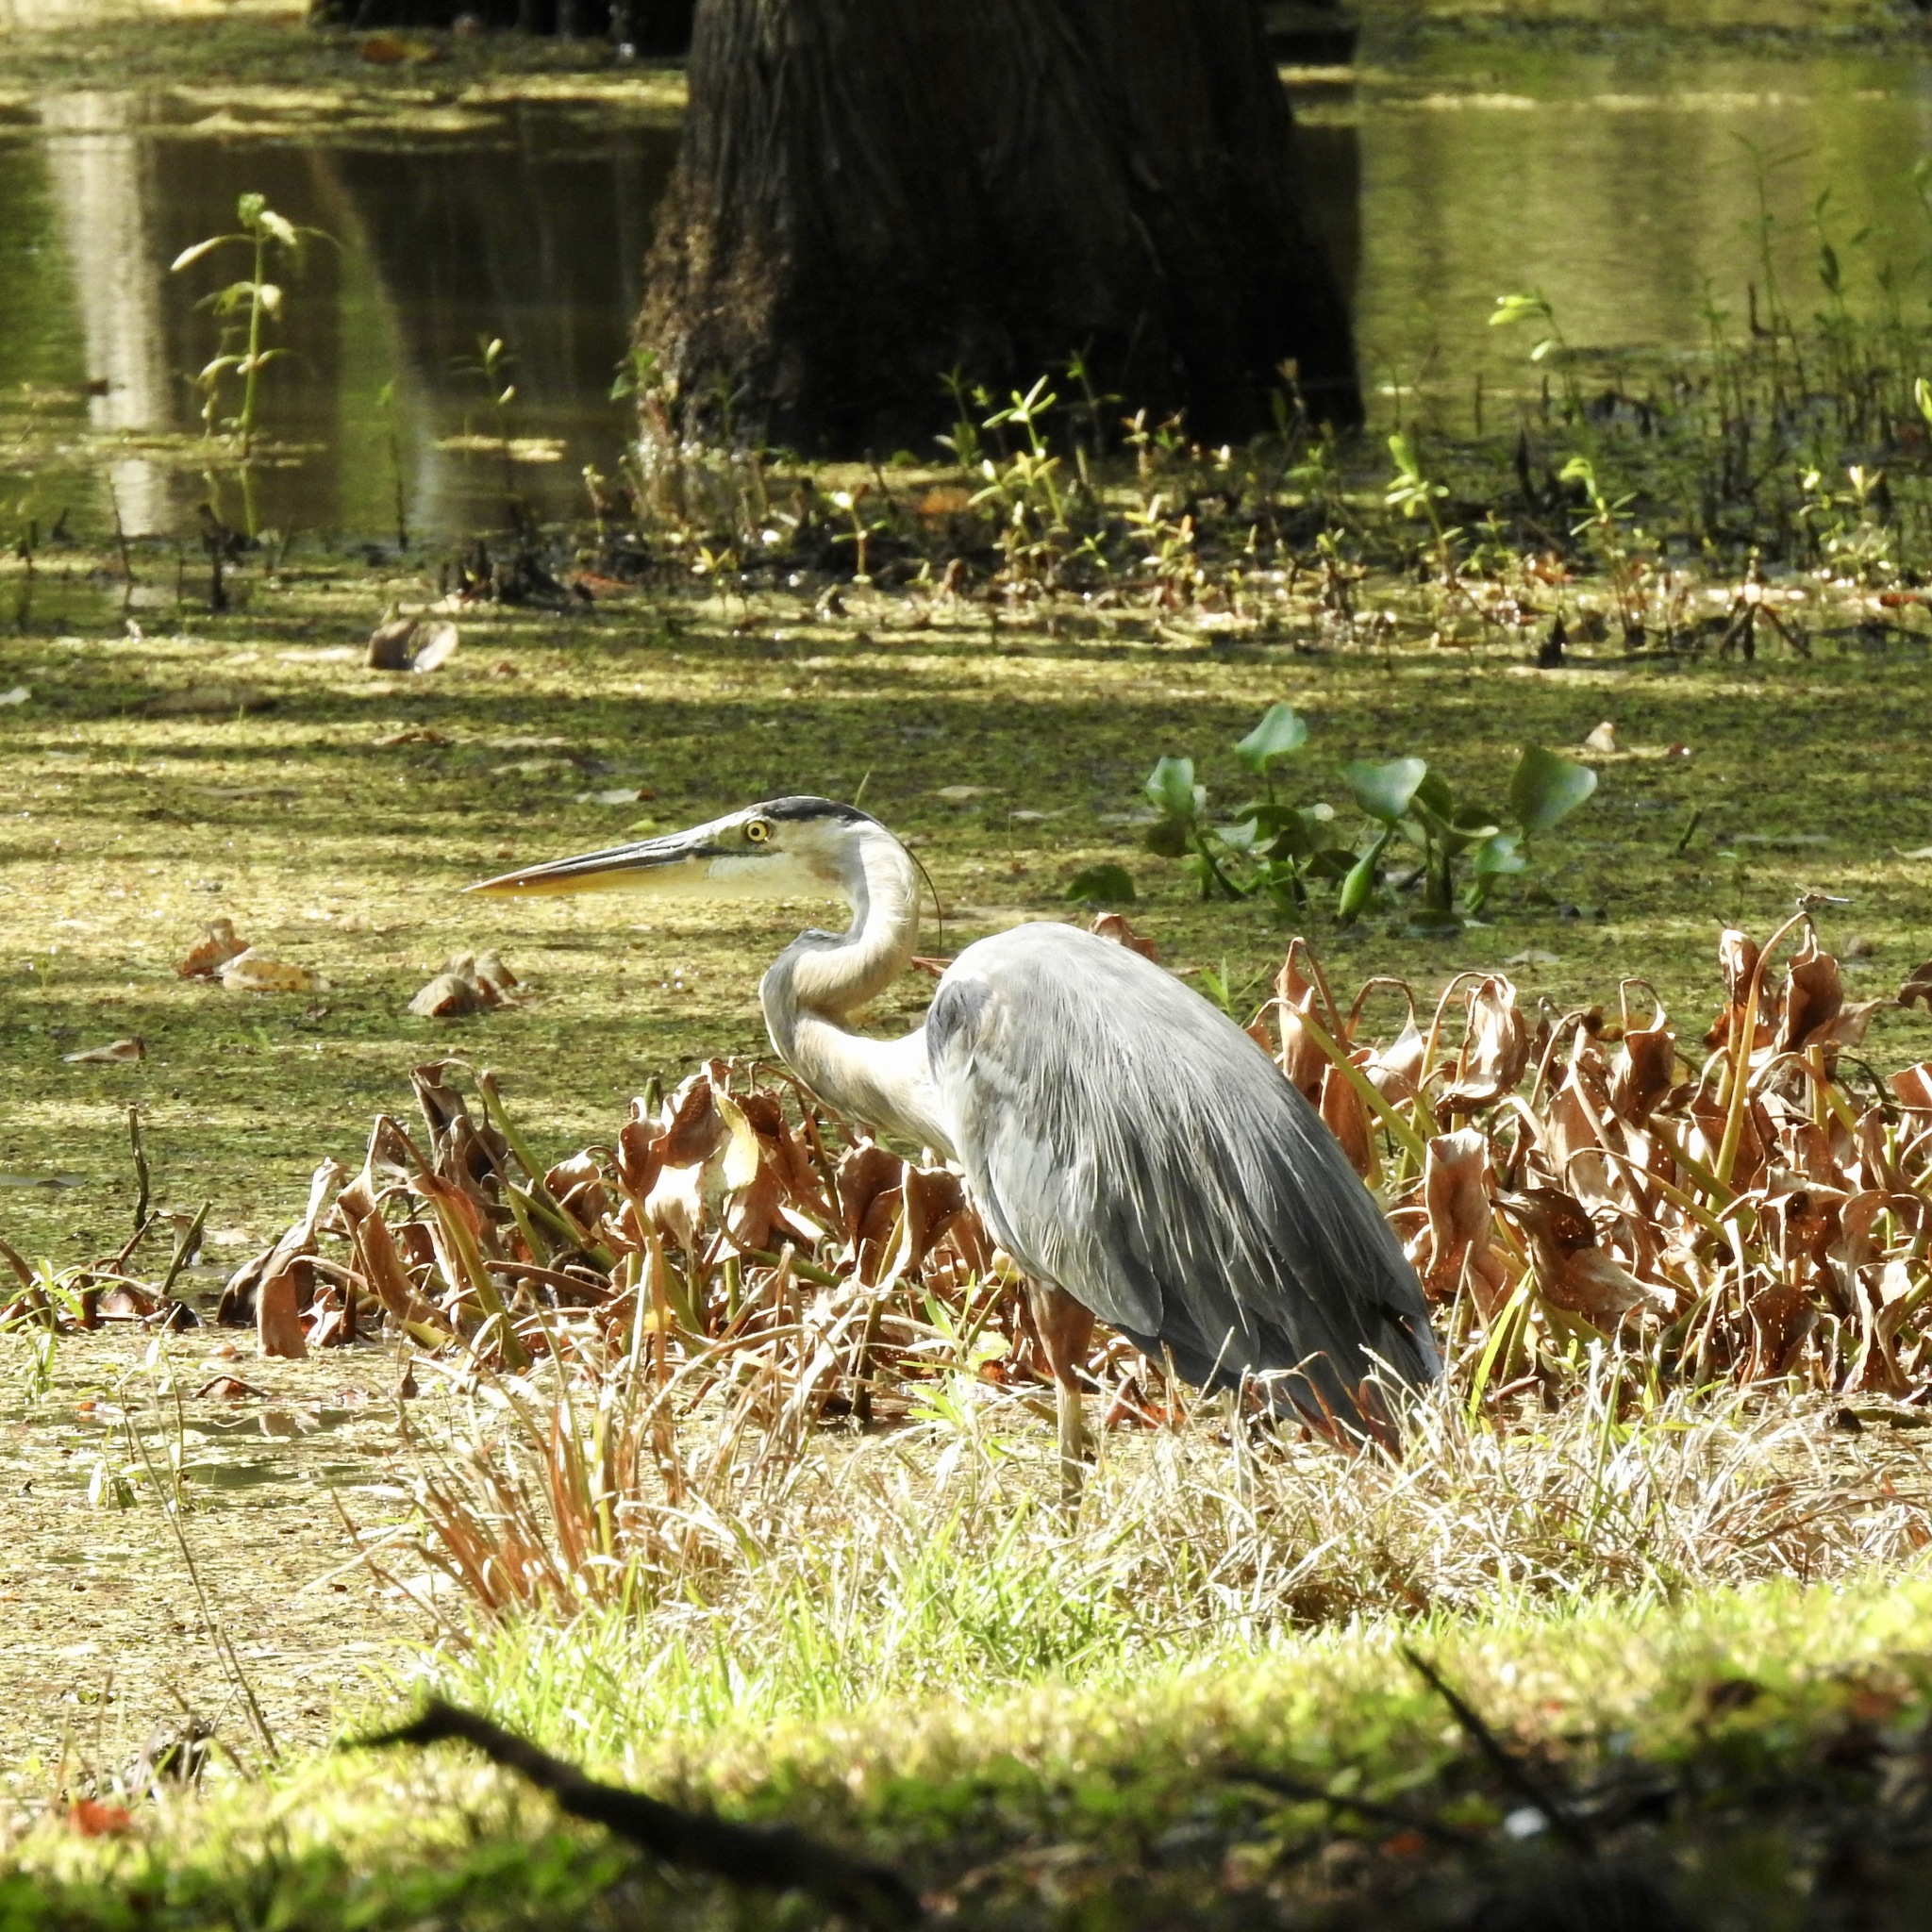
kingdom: Animalia
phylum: Chordata
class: Aves
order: Pelecaniformes
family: Ardeidae
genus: Ardea
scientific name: Ardea herodias
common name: Great blue heron
